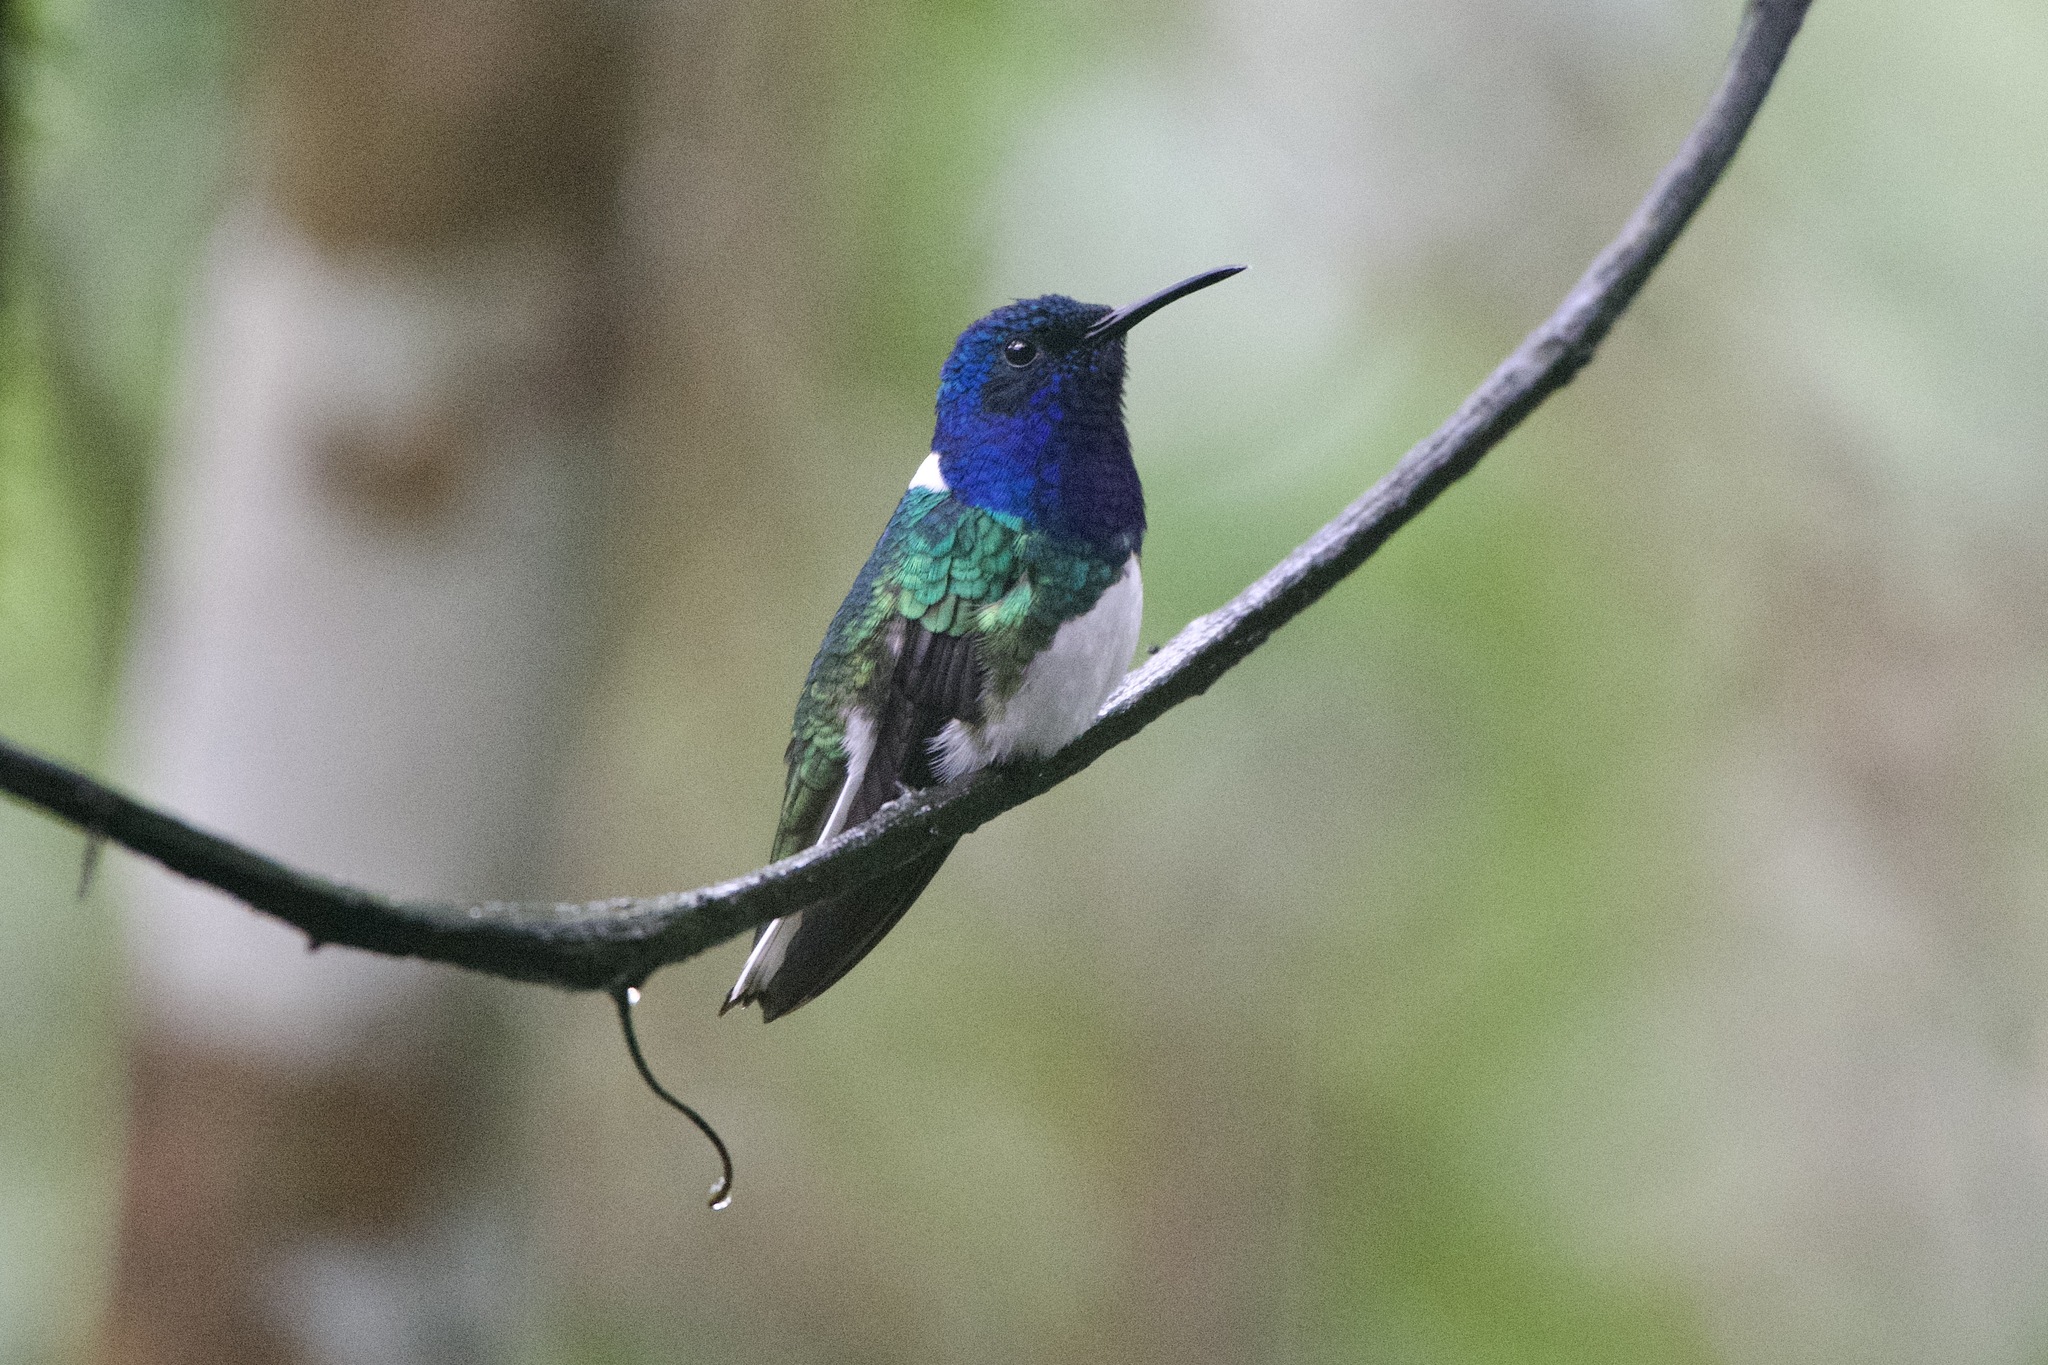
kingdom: Animalia
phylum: Chordata
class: Aves
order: Apodiformes
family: Trochilidae
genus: Florisuga
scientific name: Florisuga mellivora
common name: White-necked jacobin
